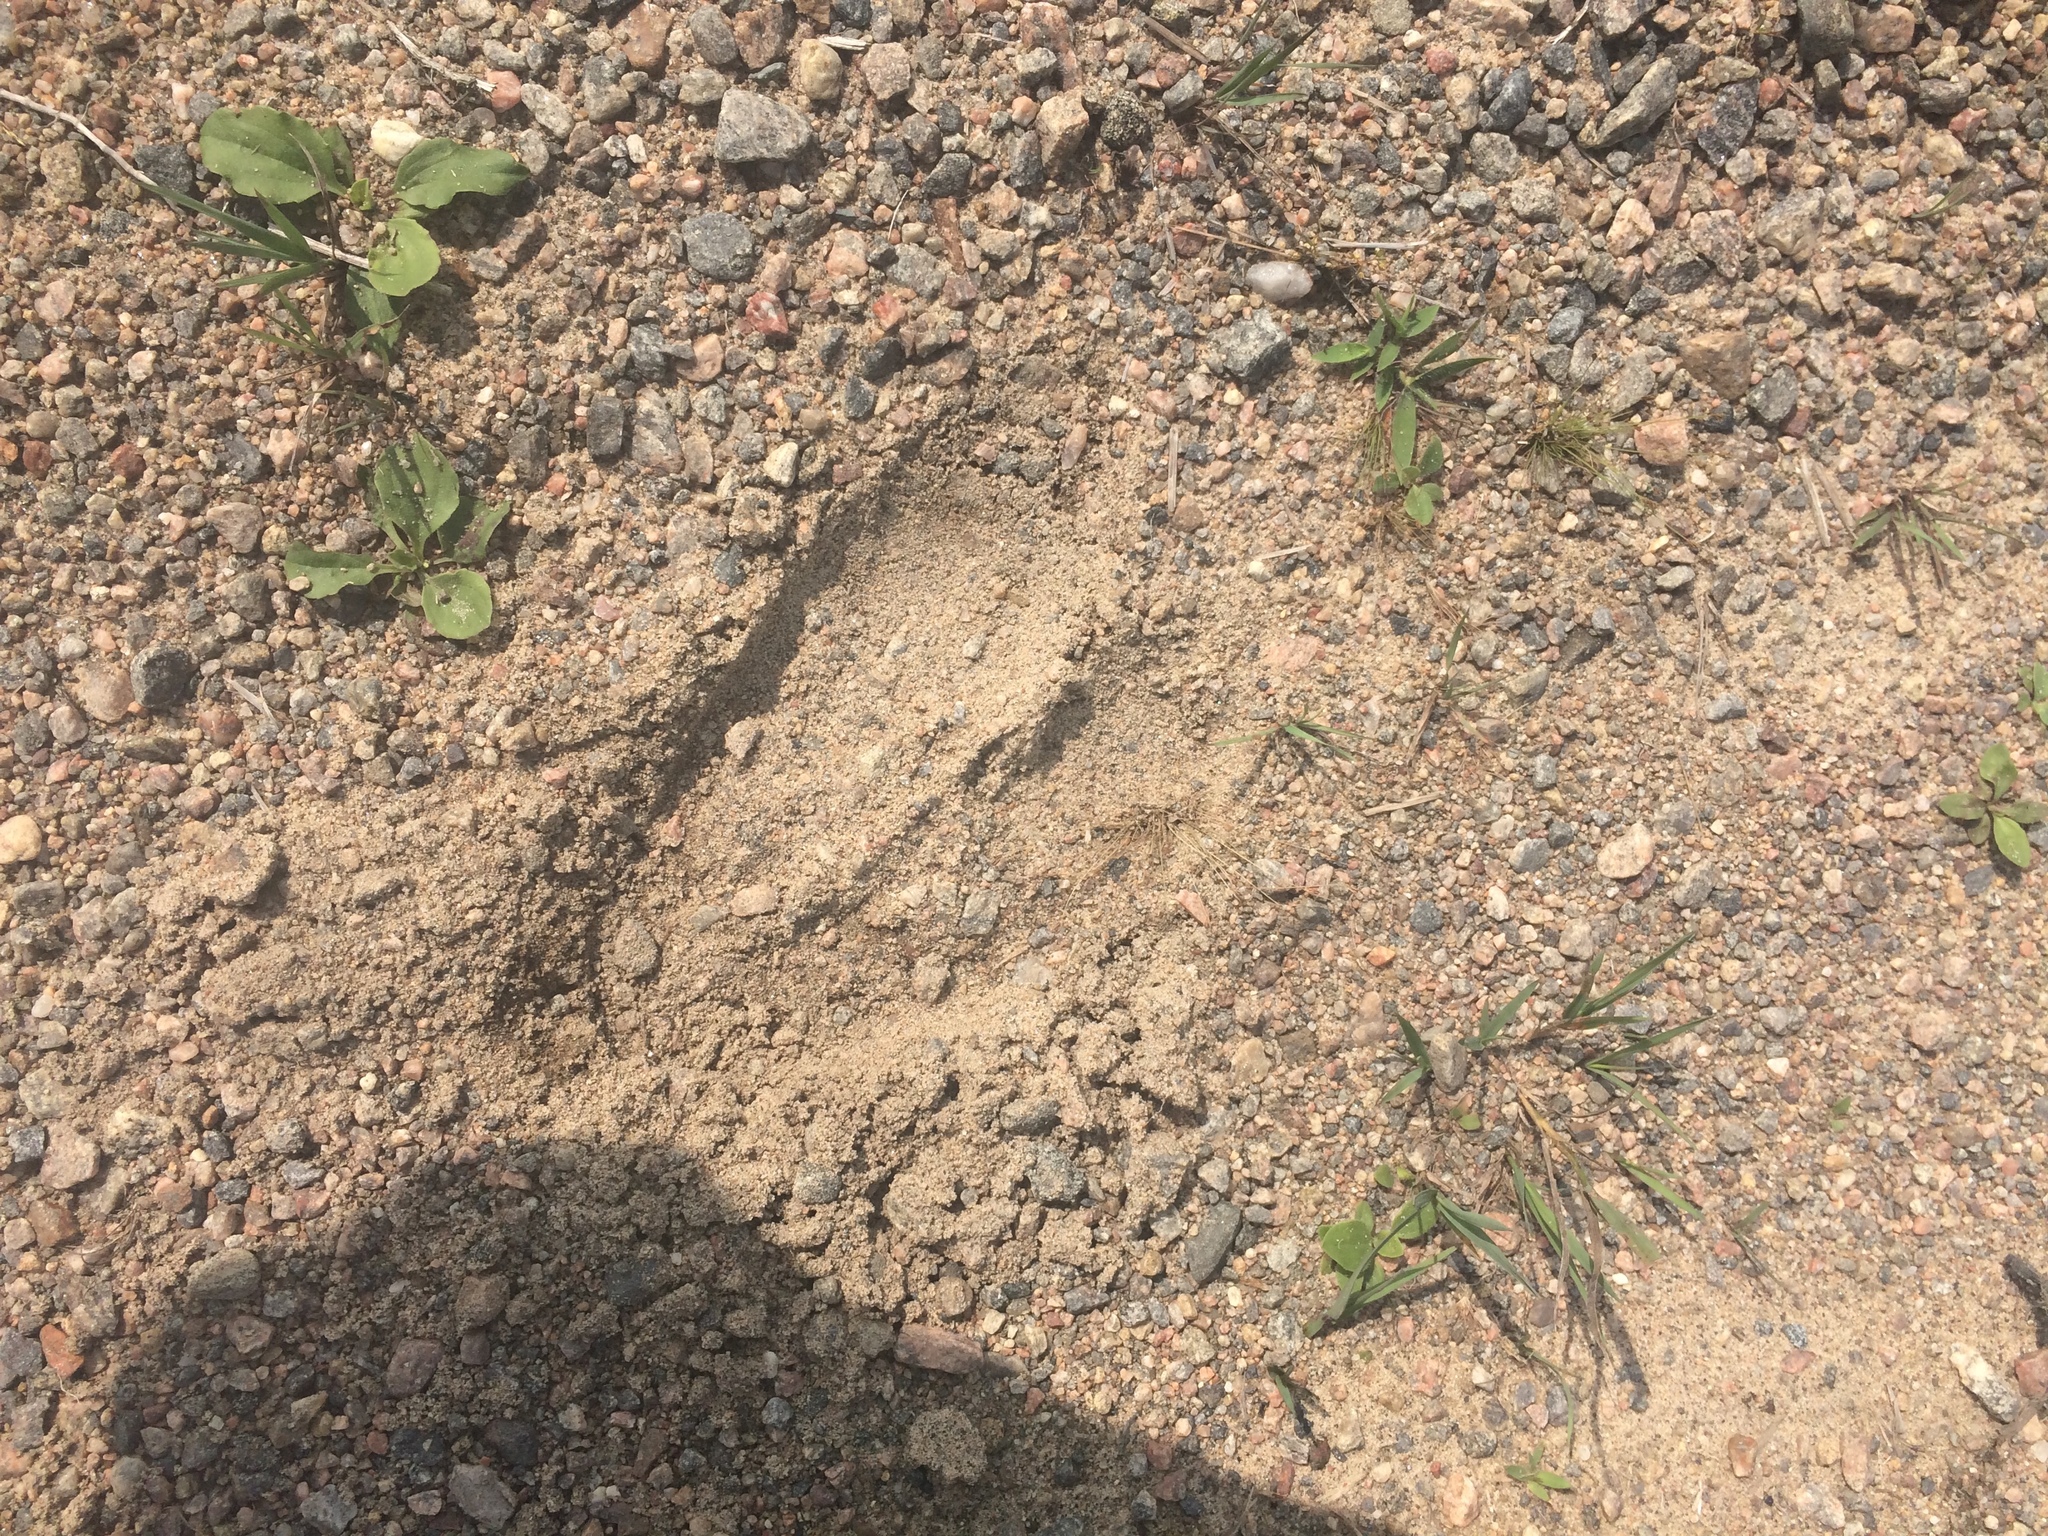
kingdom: Animalia
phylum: Chordata
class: Mammalia
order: Artiodactyla
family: Cervidae
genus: Alces
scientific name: Alces alces
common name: Moose
